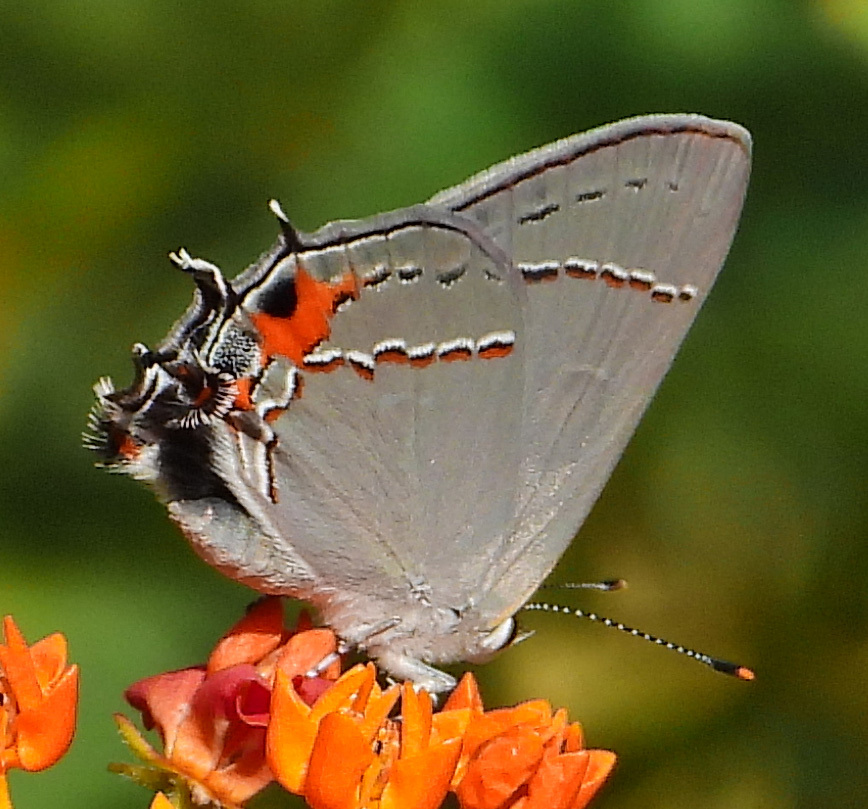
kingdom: Animalia
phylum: Arthropoda
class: Insecta
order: Lepidoptera
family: Lycaenidae
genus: Strymon
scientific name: Strymon melinus
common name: Gray hairstreak
